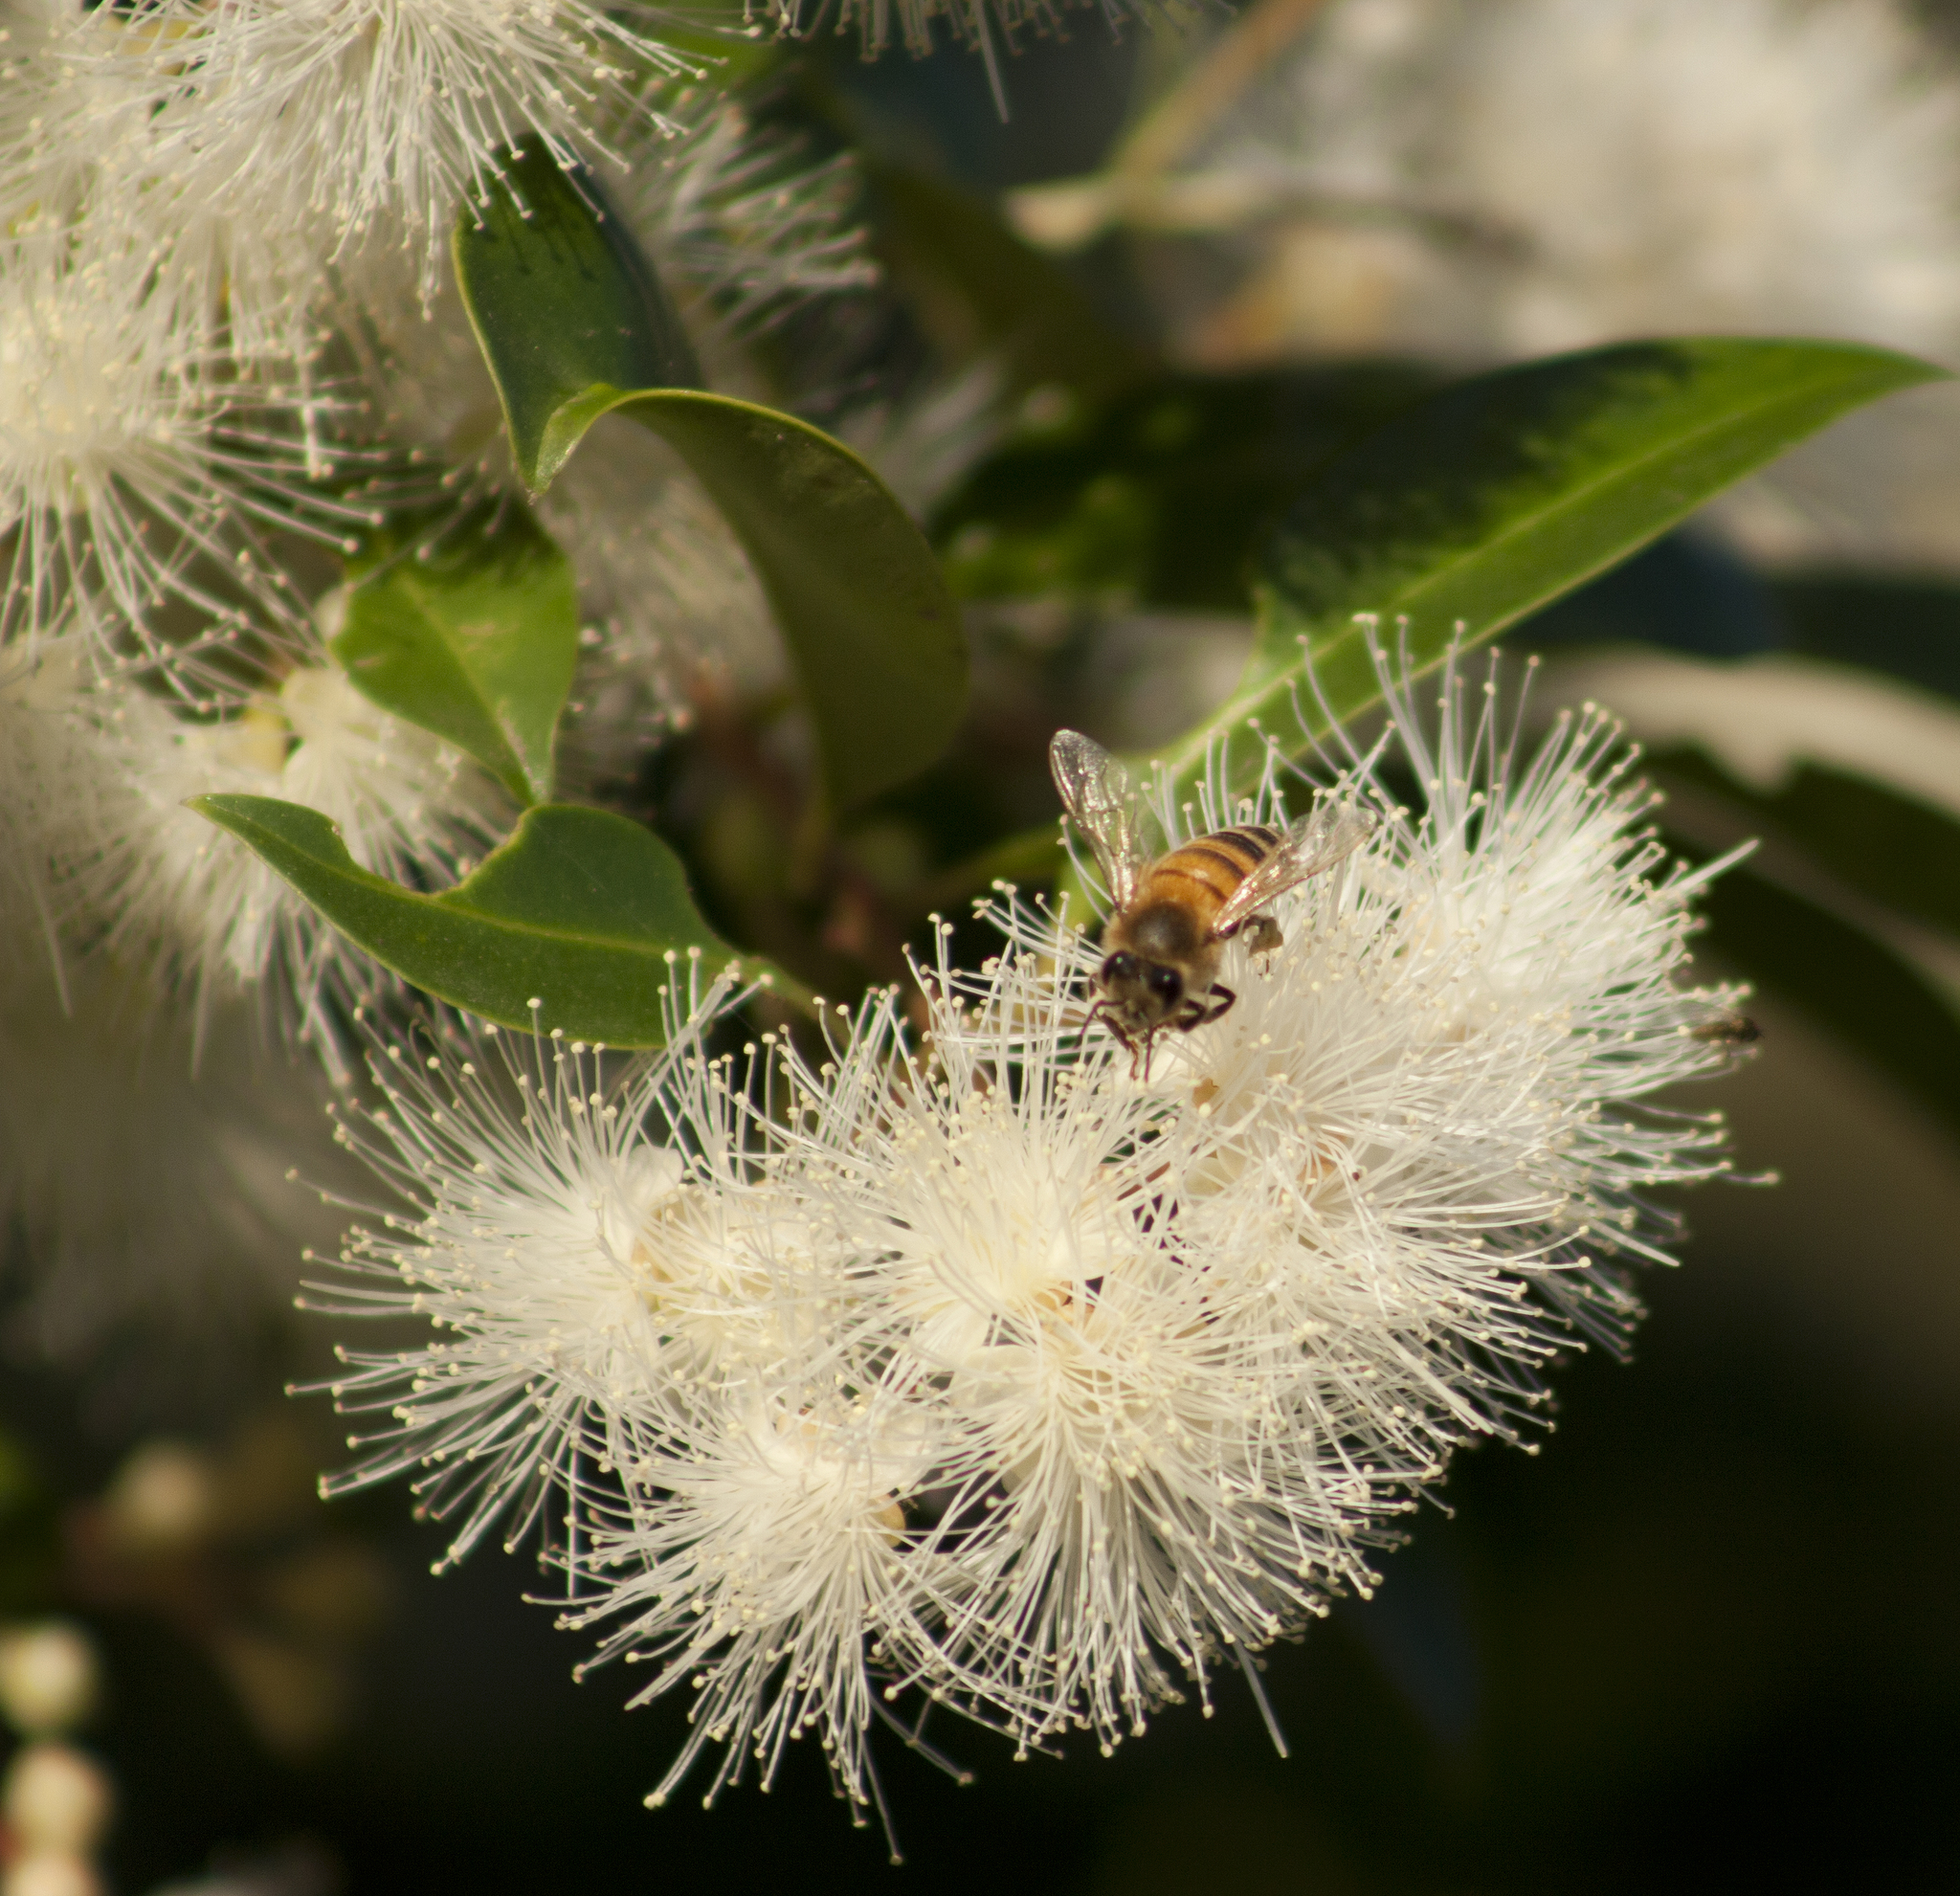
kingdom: Animalia
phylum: Arthropoda
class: Insecta
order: Hymenoptera
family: Apidae
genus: Apis
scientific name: Apis mellifera
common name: Honey bee
